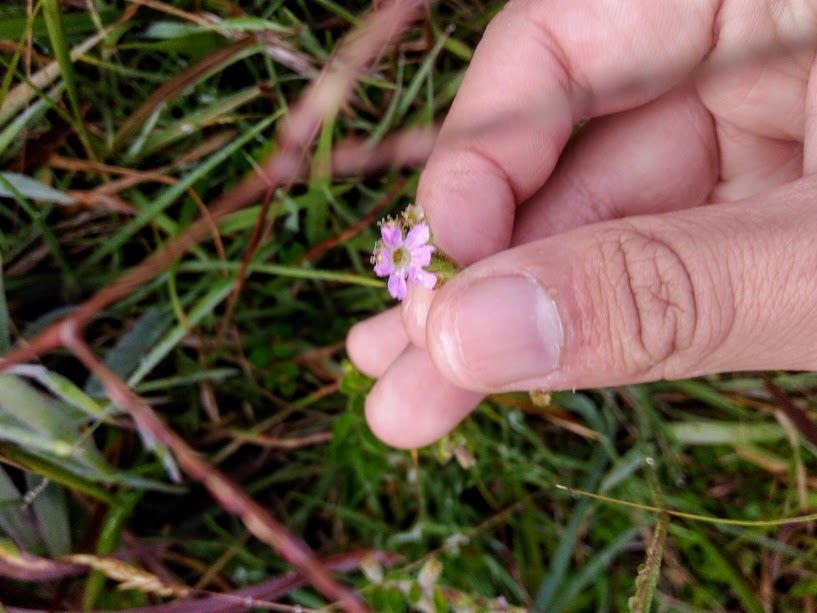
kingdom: Plantae
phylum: Tracheophyta
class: Magnoliopsida
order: Myrtales
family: Lythraceae
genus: Cuphea
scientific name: Cuphea ciliata
